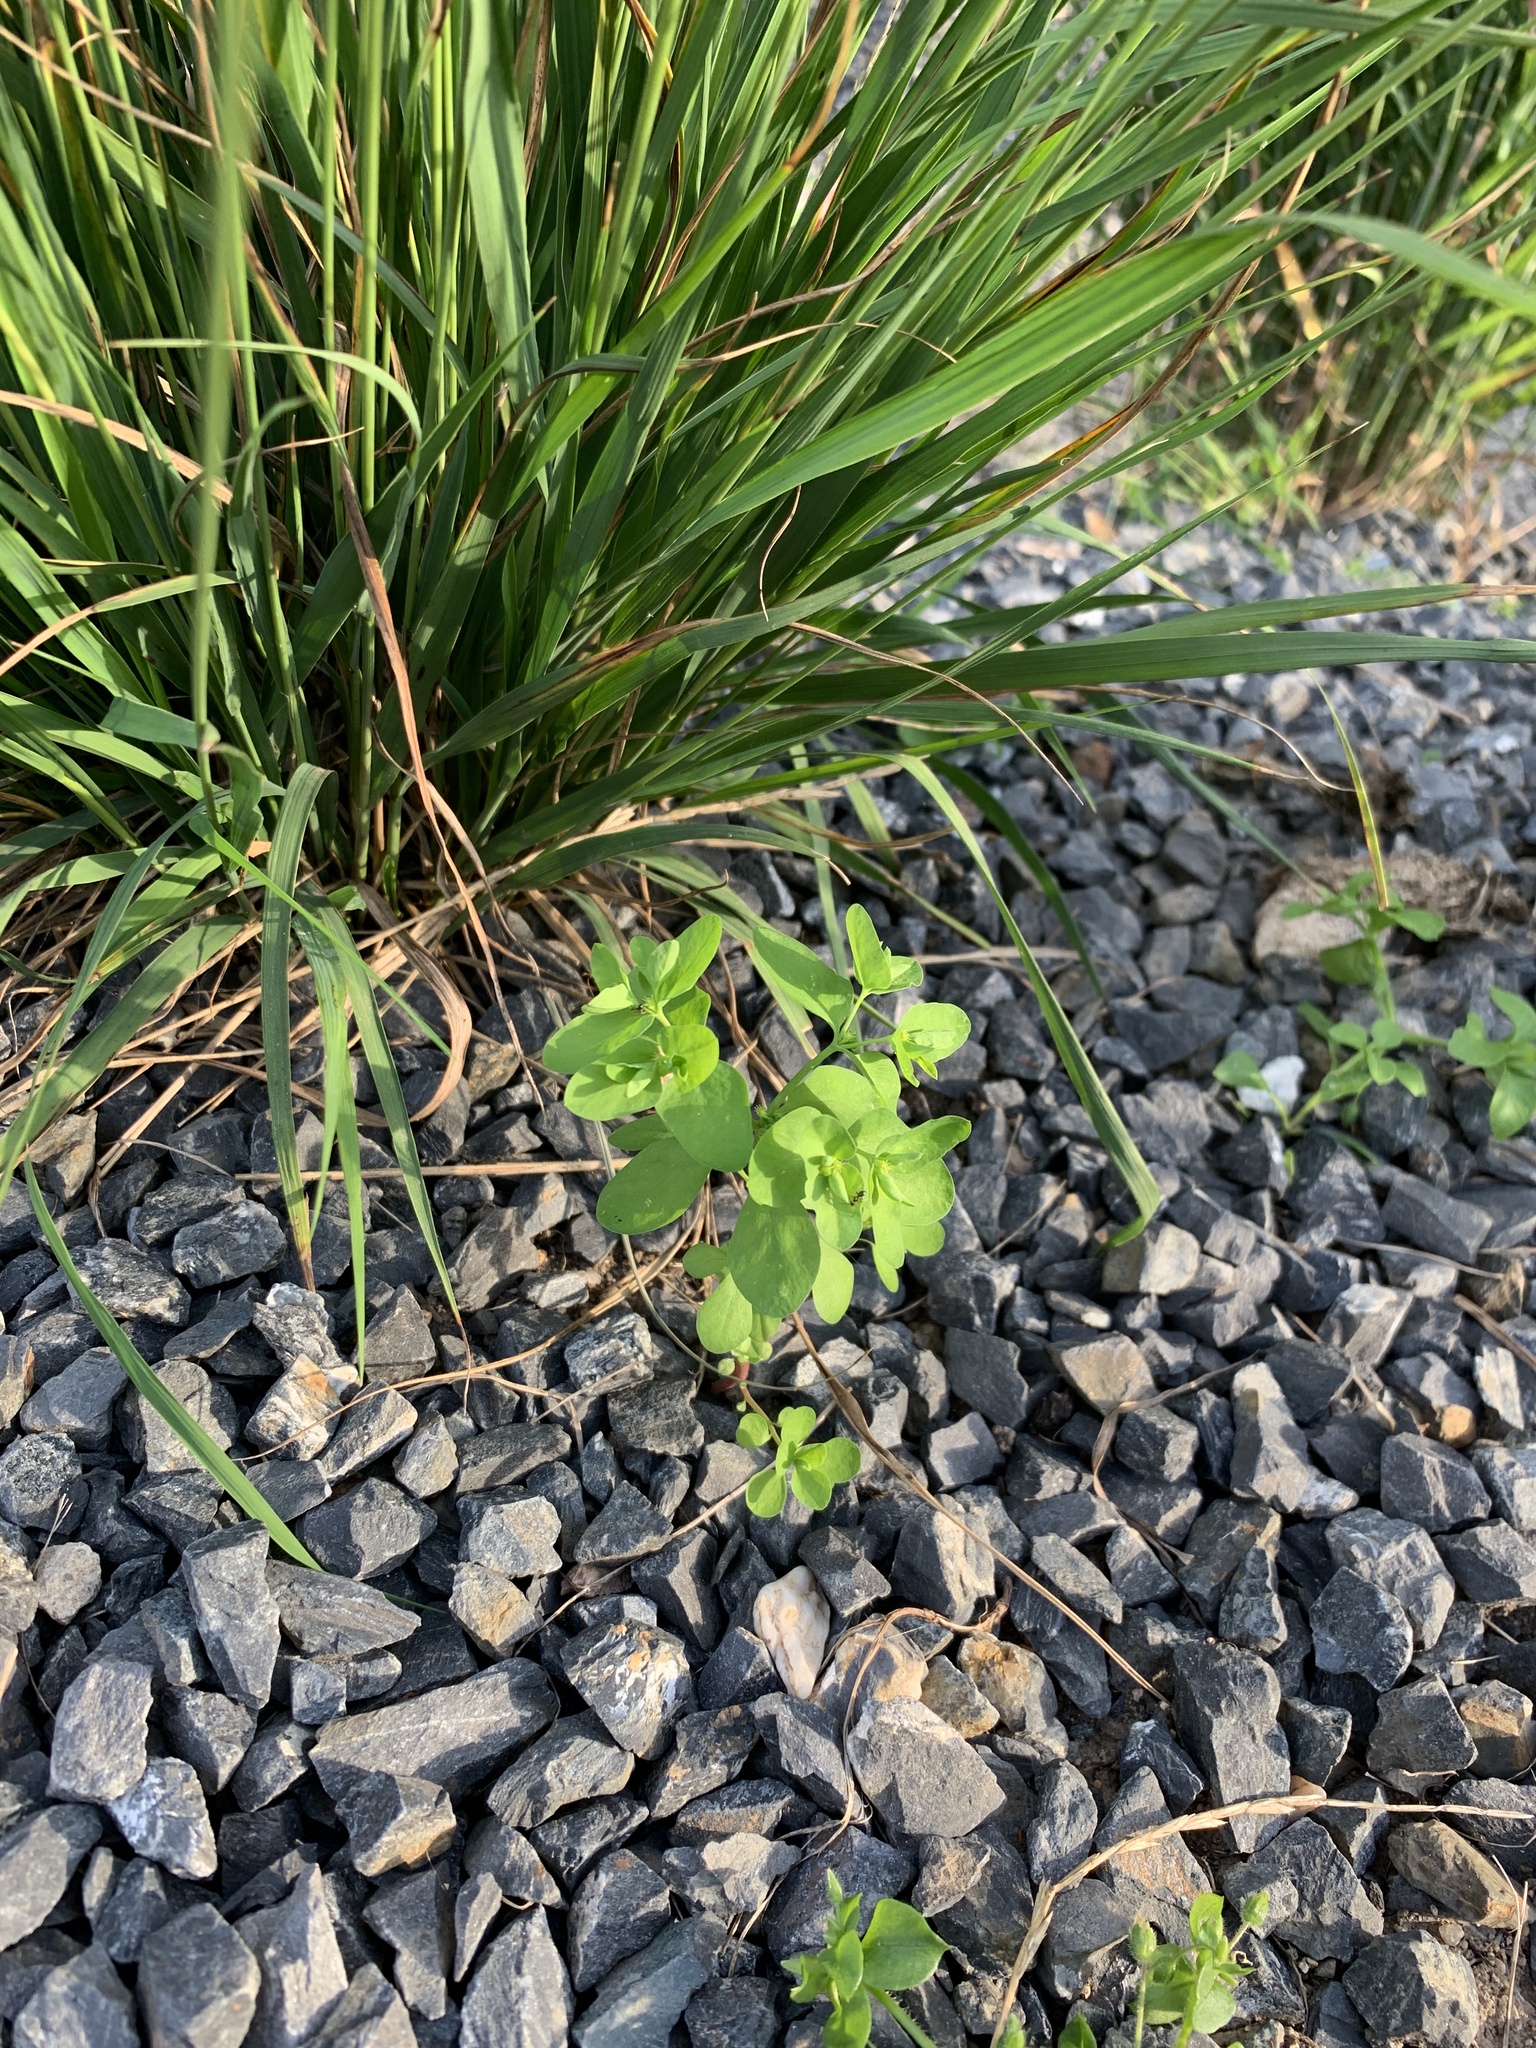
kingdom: Plantae
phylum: Tracheophyta
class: Magnoliopsida
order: Malpighiales
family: Euphorbiaceae
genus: Euphorbia
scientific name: Euphorbia peplus
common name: Petty spurge
